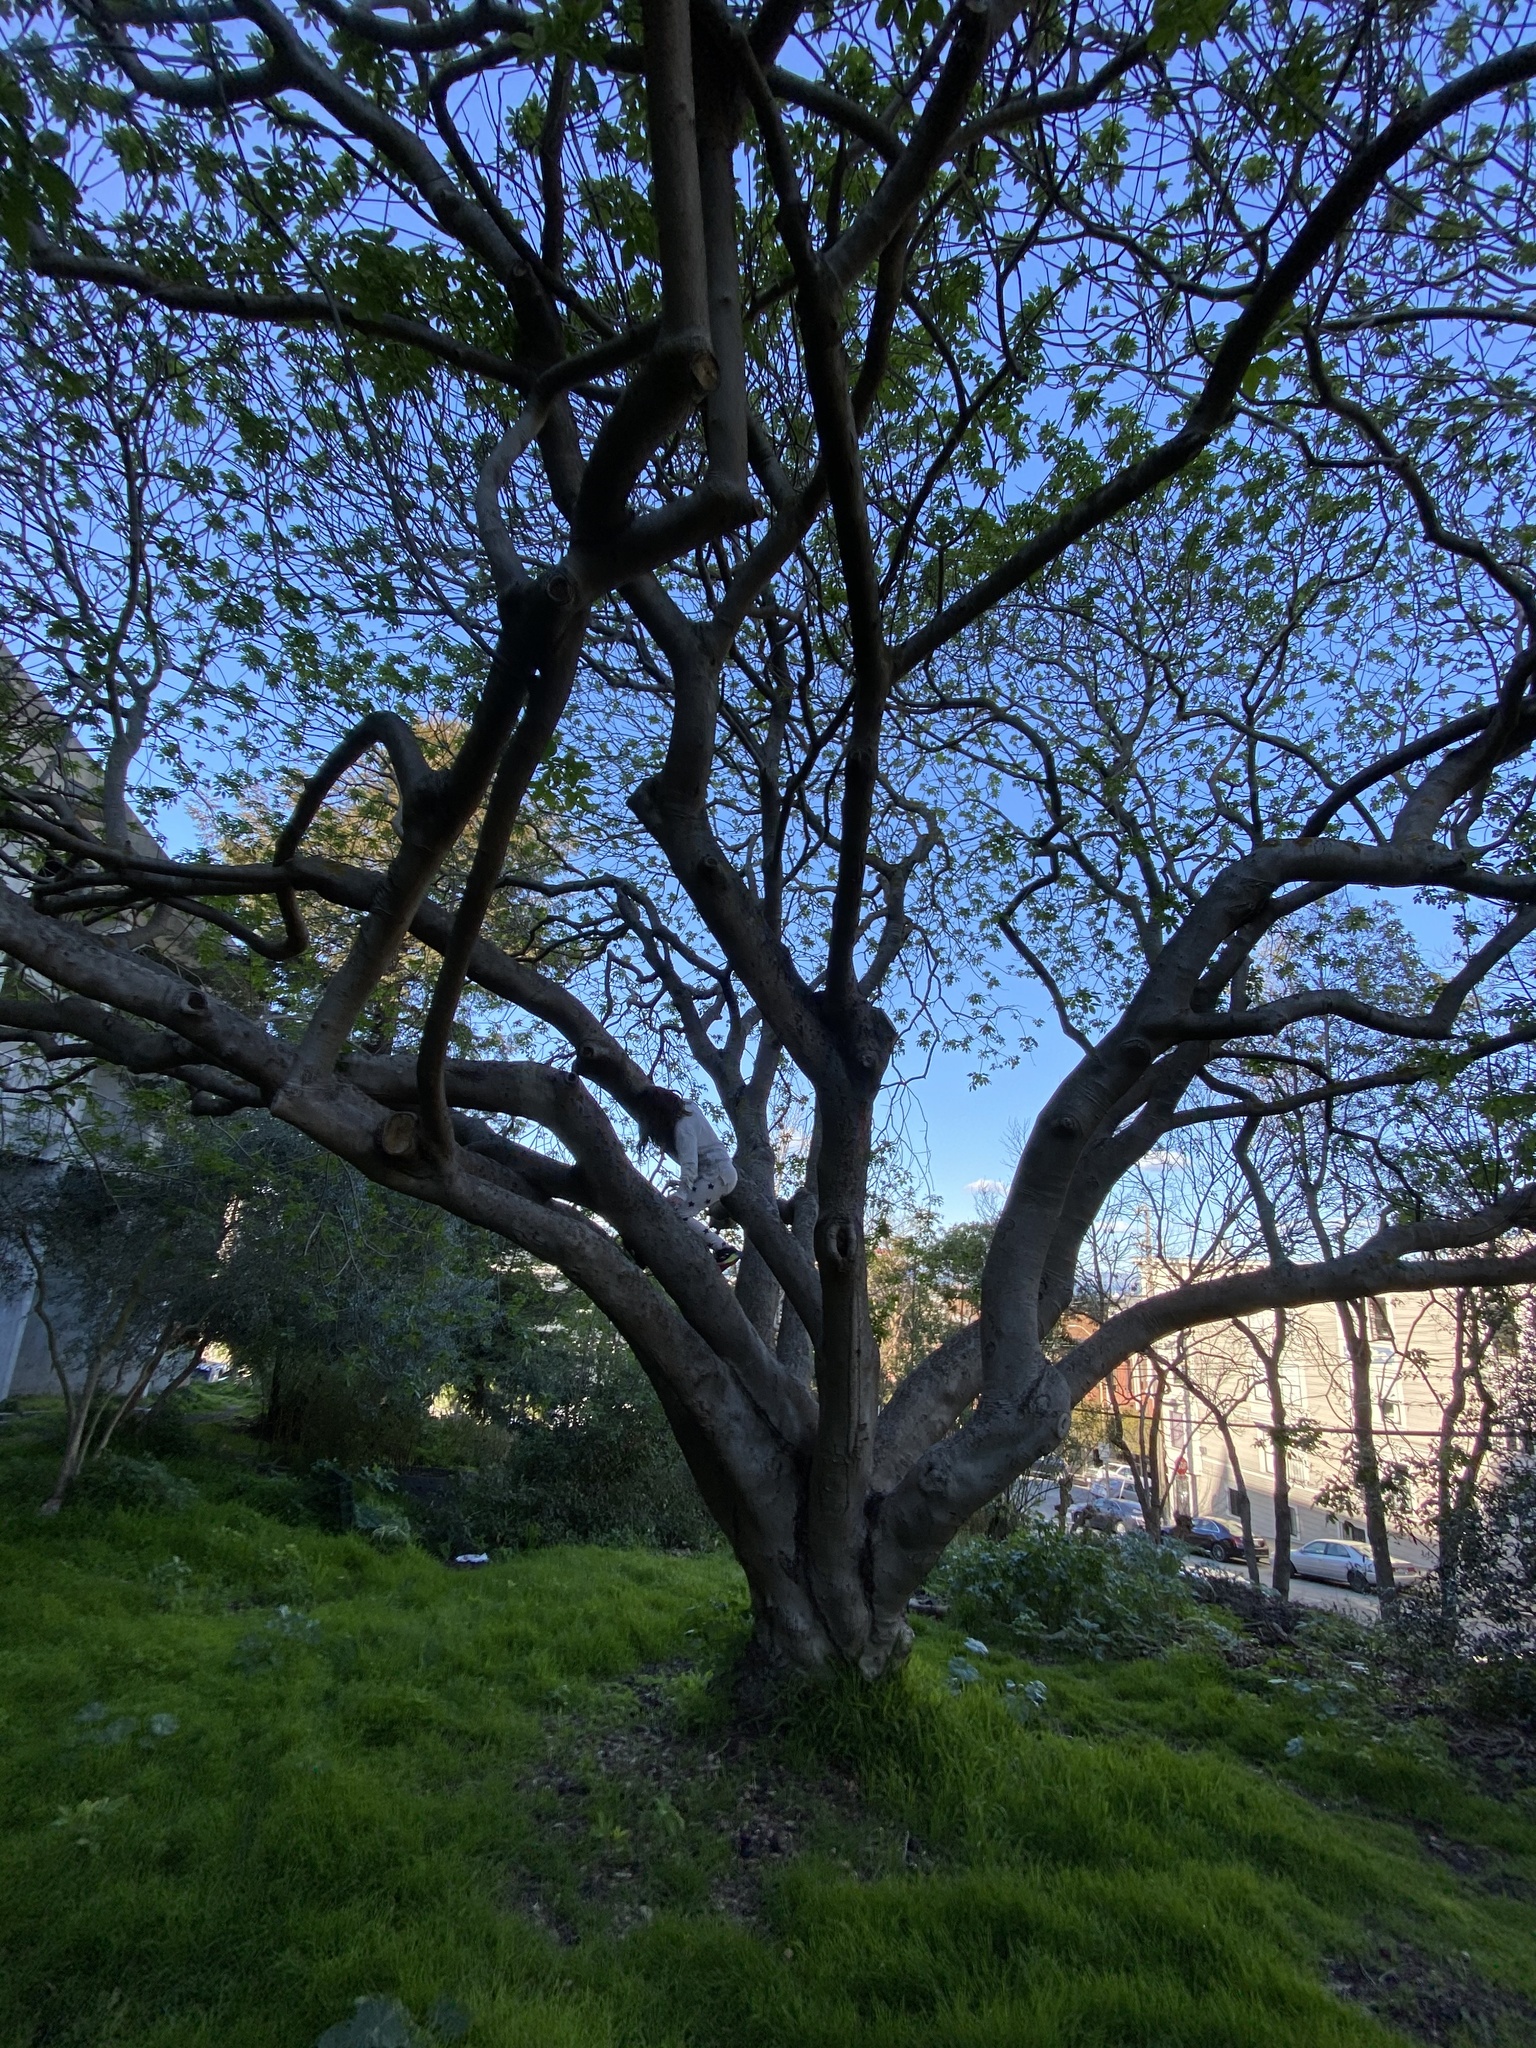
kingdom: Plantae
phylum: Tracheophyta
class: Magnoliopsida
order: Sapindales
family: Sapindaceae
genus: Aesculus
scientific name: Aesculus californica
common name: California buckeye
